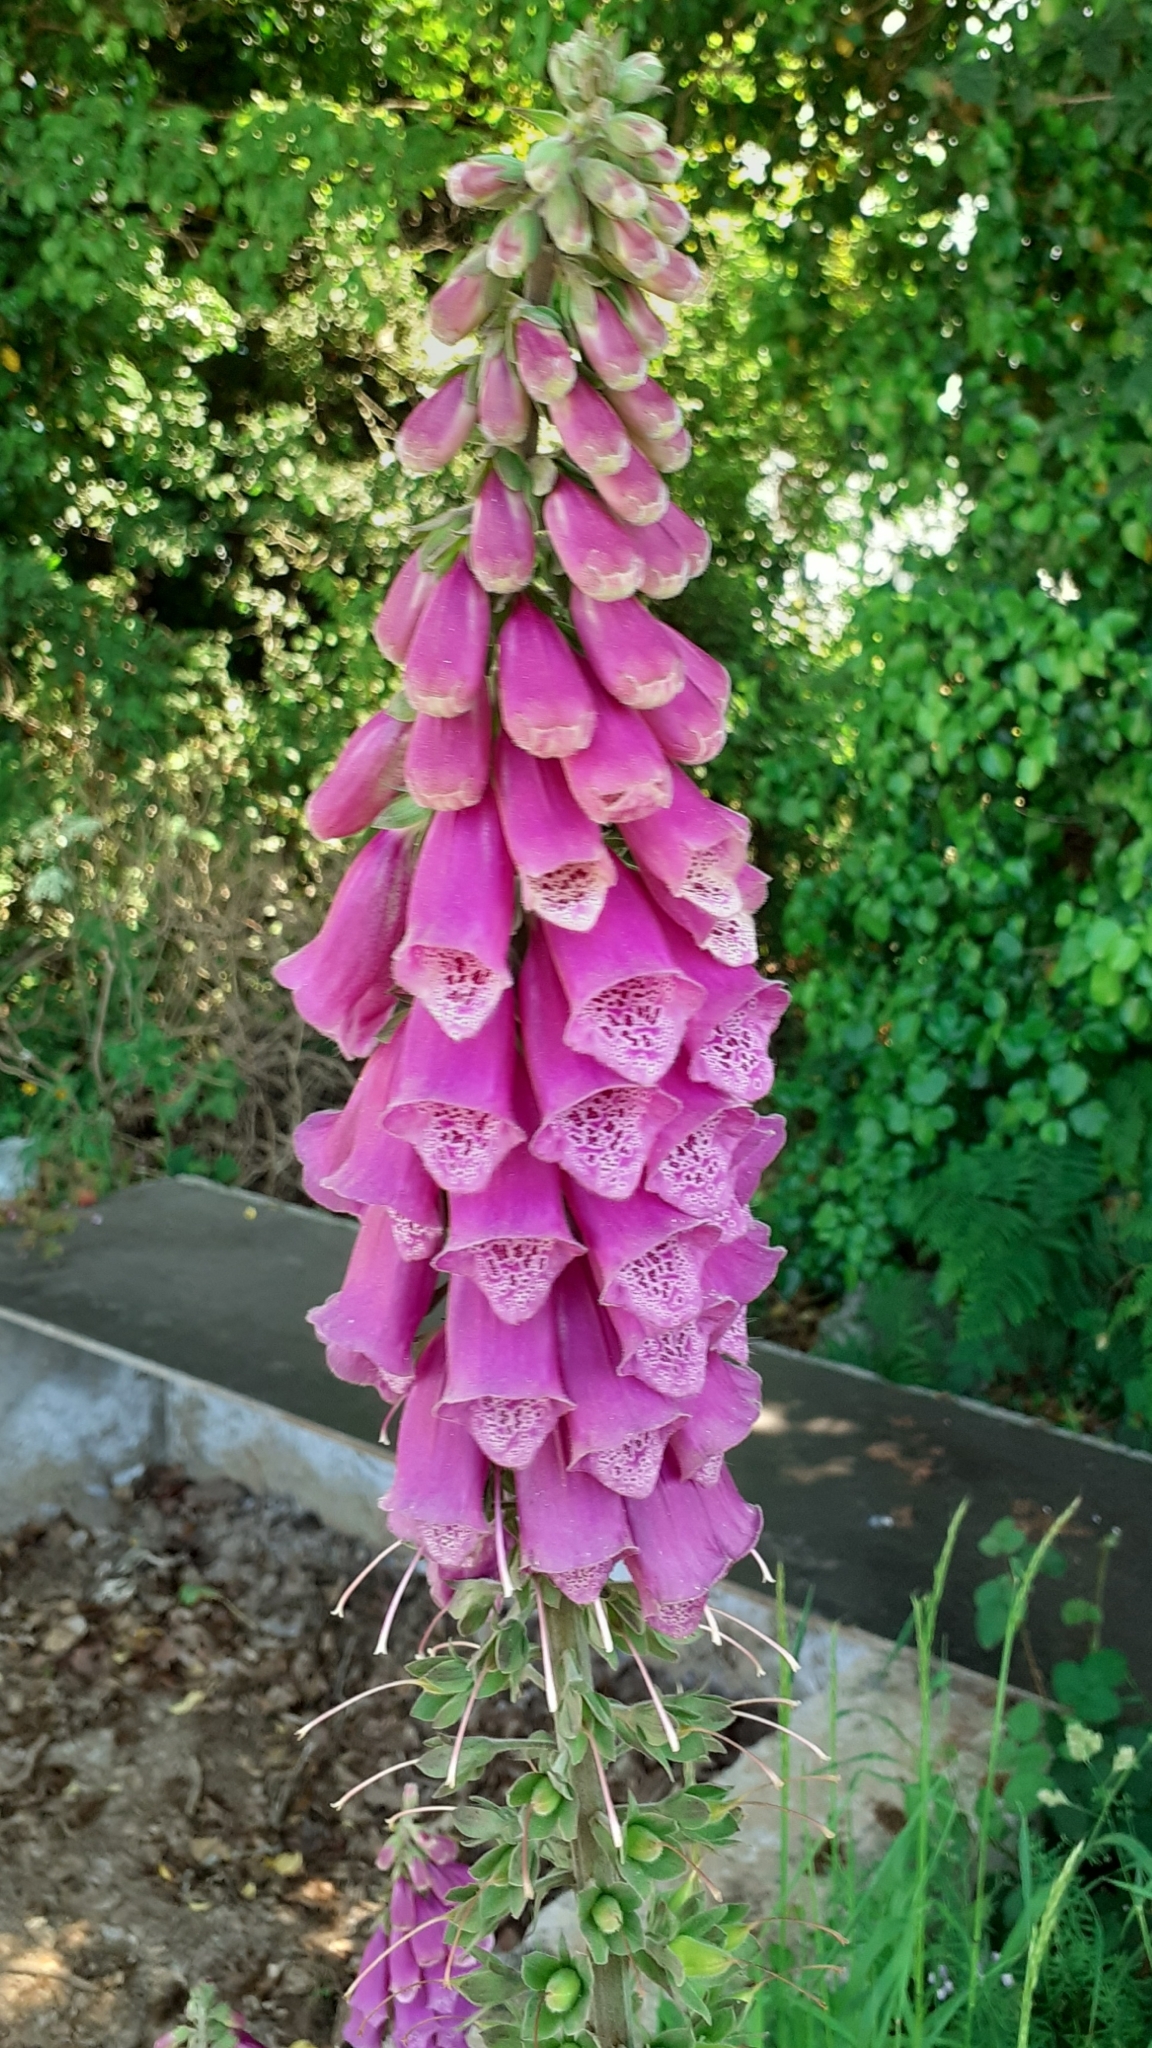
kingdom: Plantae
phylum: Tracheophyta
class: Magnoliopsida
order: Lamiales
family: Plantaginaceae
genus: Digitalis
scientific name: Digitalis purpurea
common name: Foxglove
